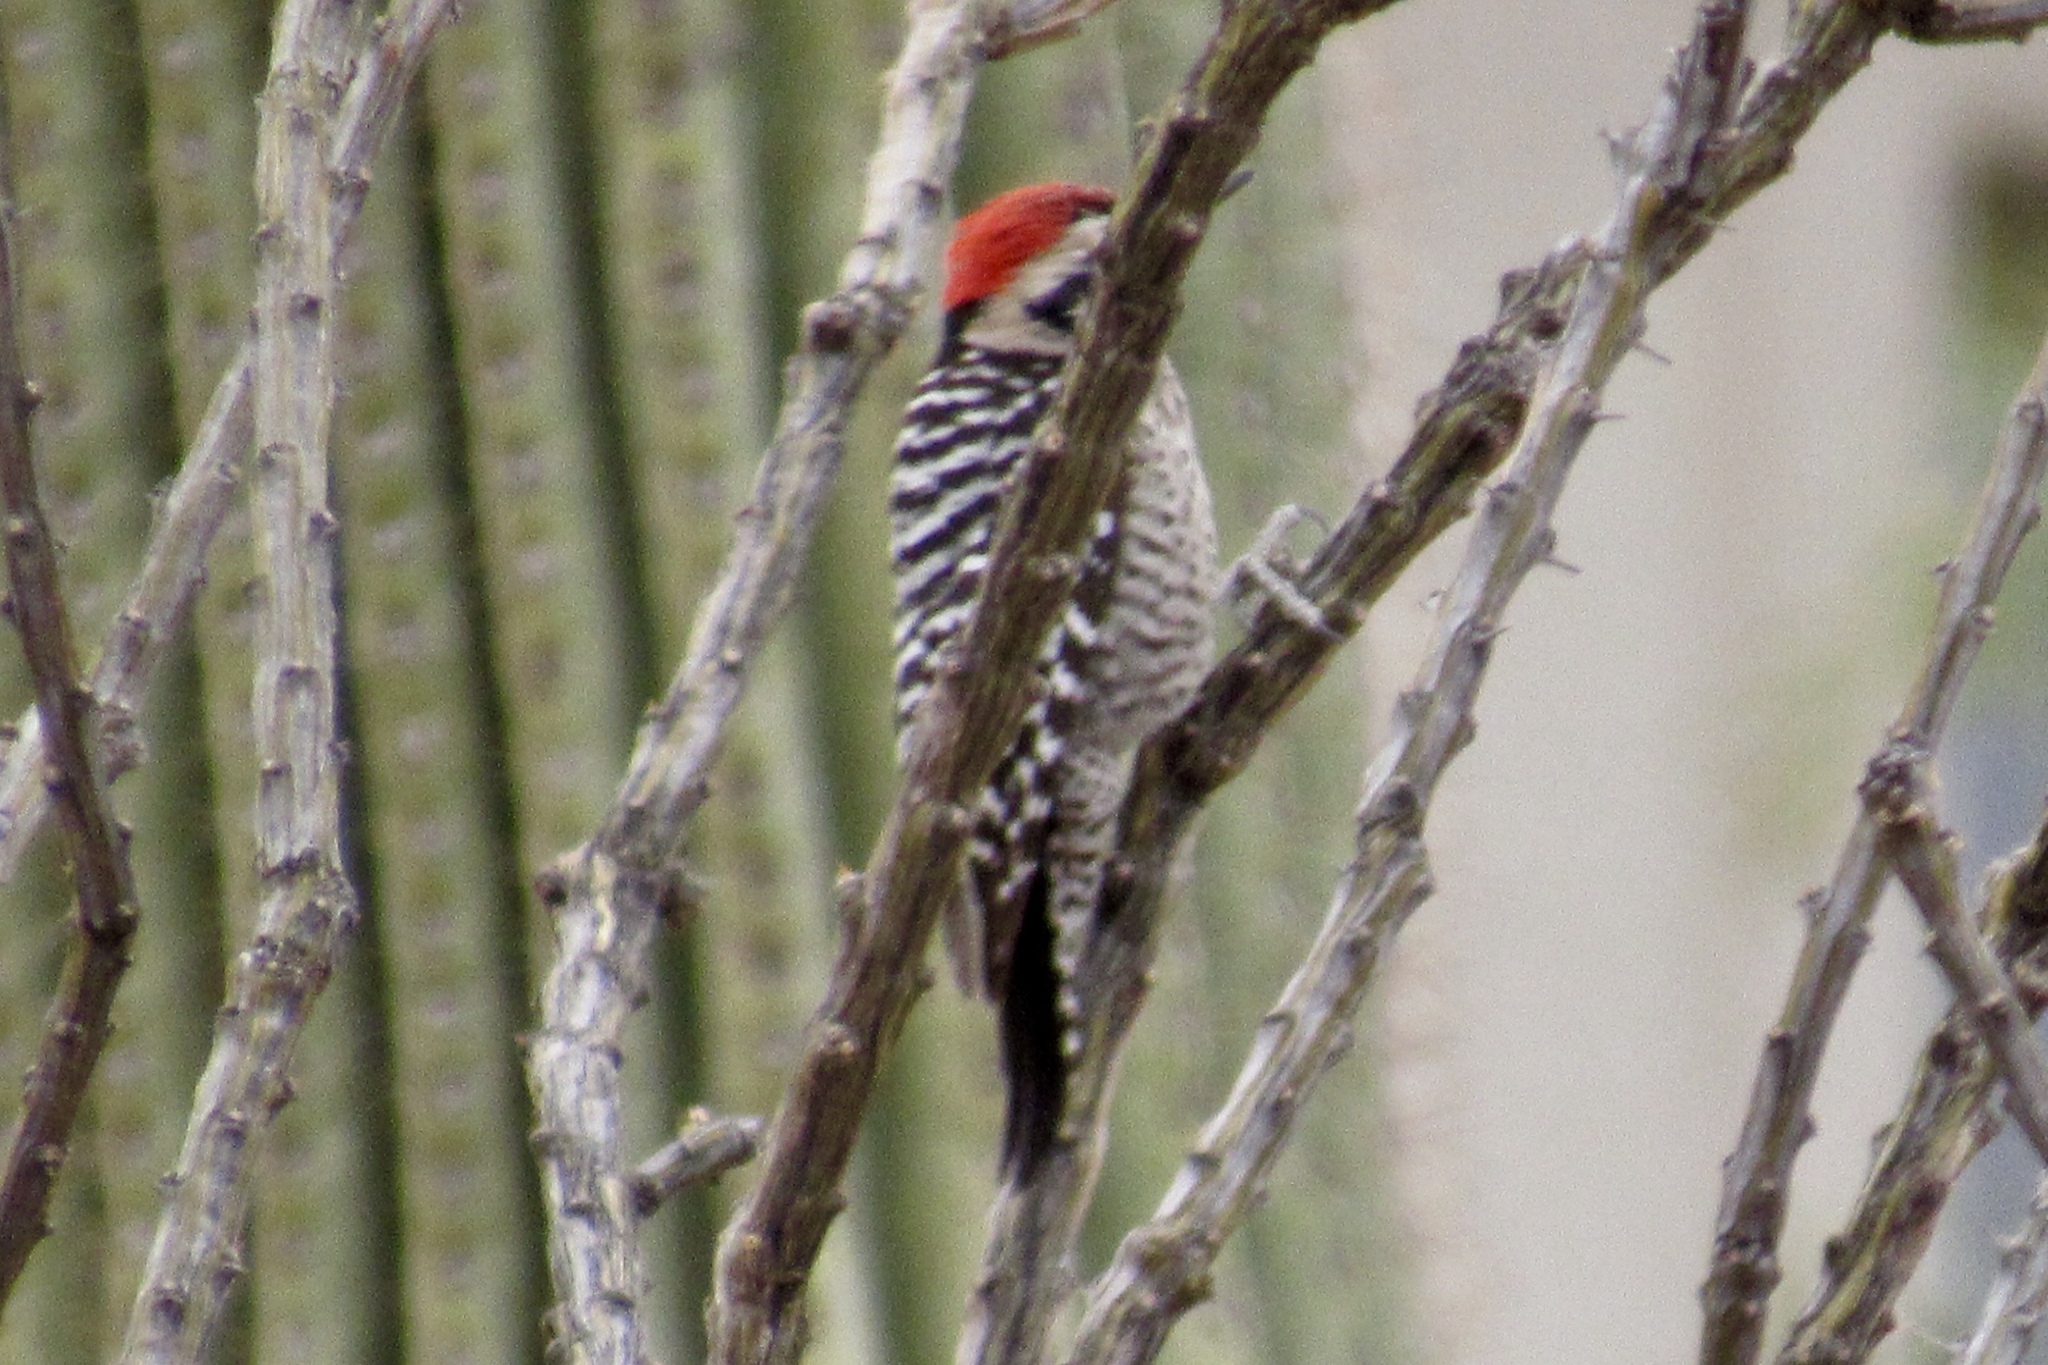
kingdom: Animalia
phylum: Chordata
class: Aves
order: Piciformes
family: Picidae
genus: Dryobates
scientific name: Dryobates scalaris
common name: Ladder-backed woodpecker
